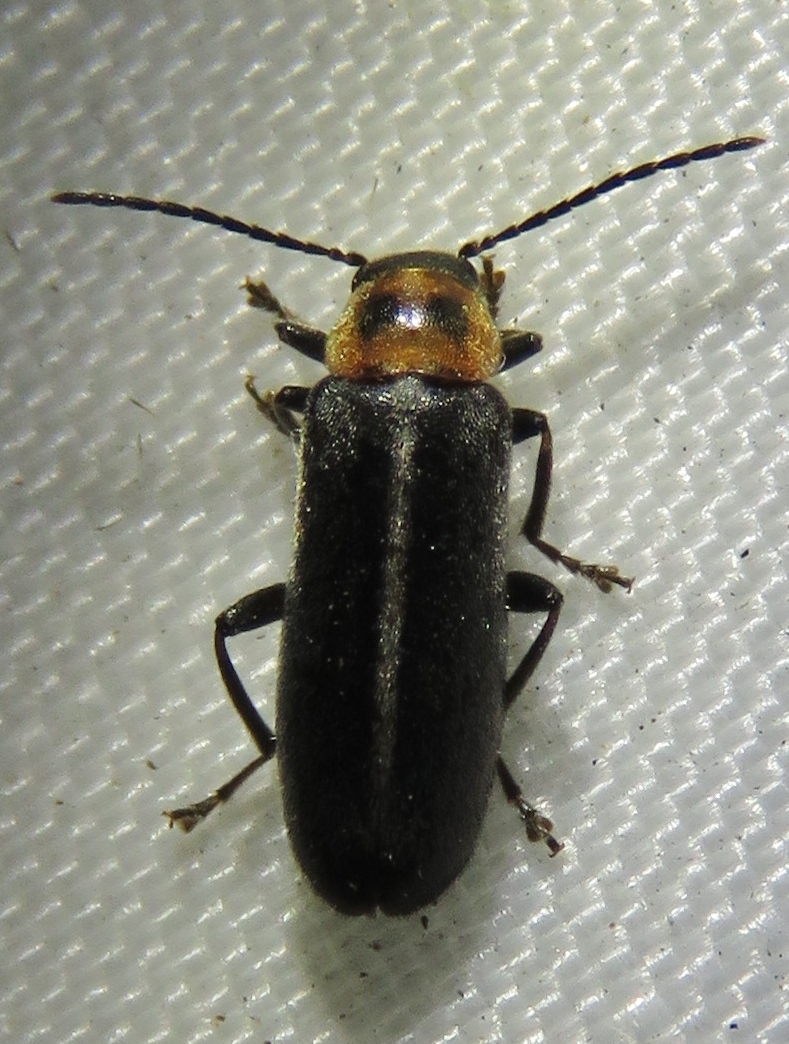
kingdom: Animalia
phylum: Arthropoda
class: Insecta
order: Coleoptera
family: Melandryidae
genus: Osphya
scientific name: Osphya varians
